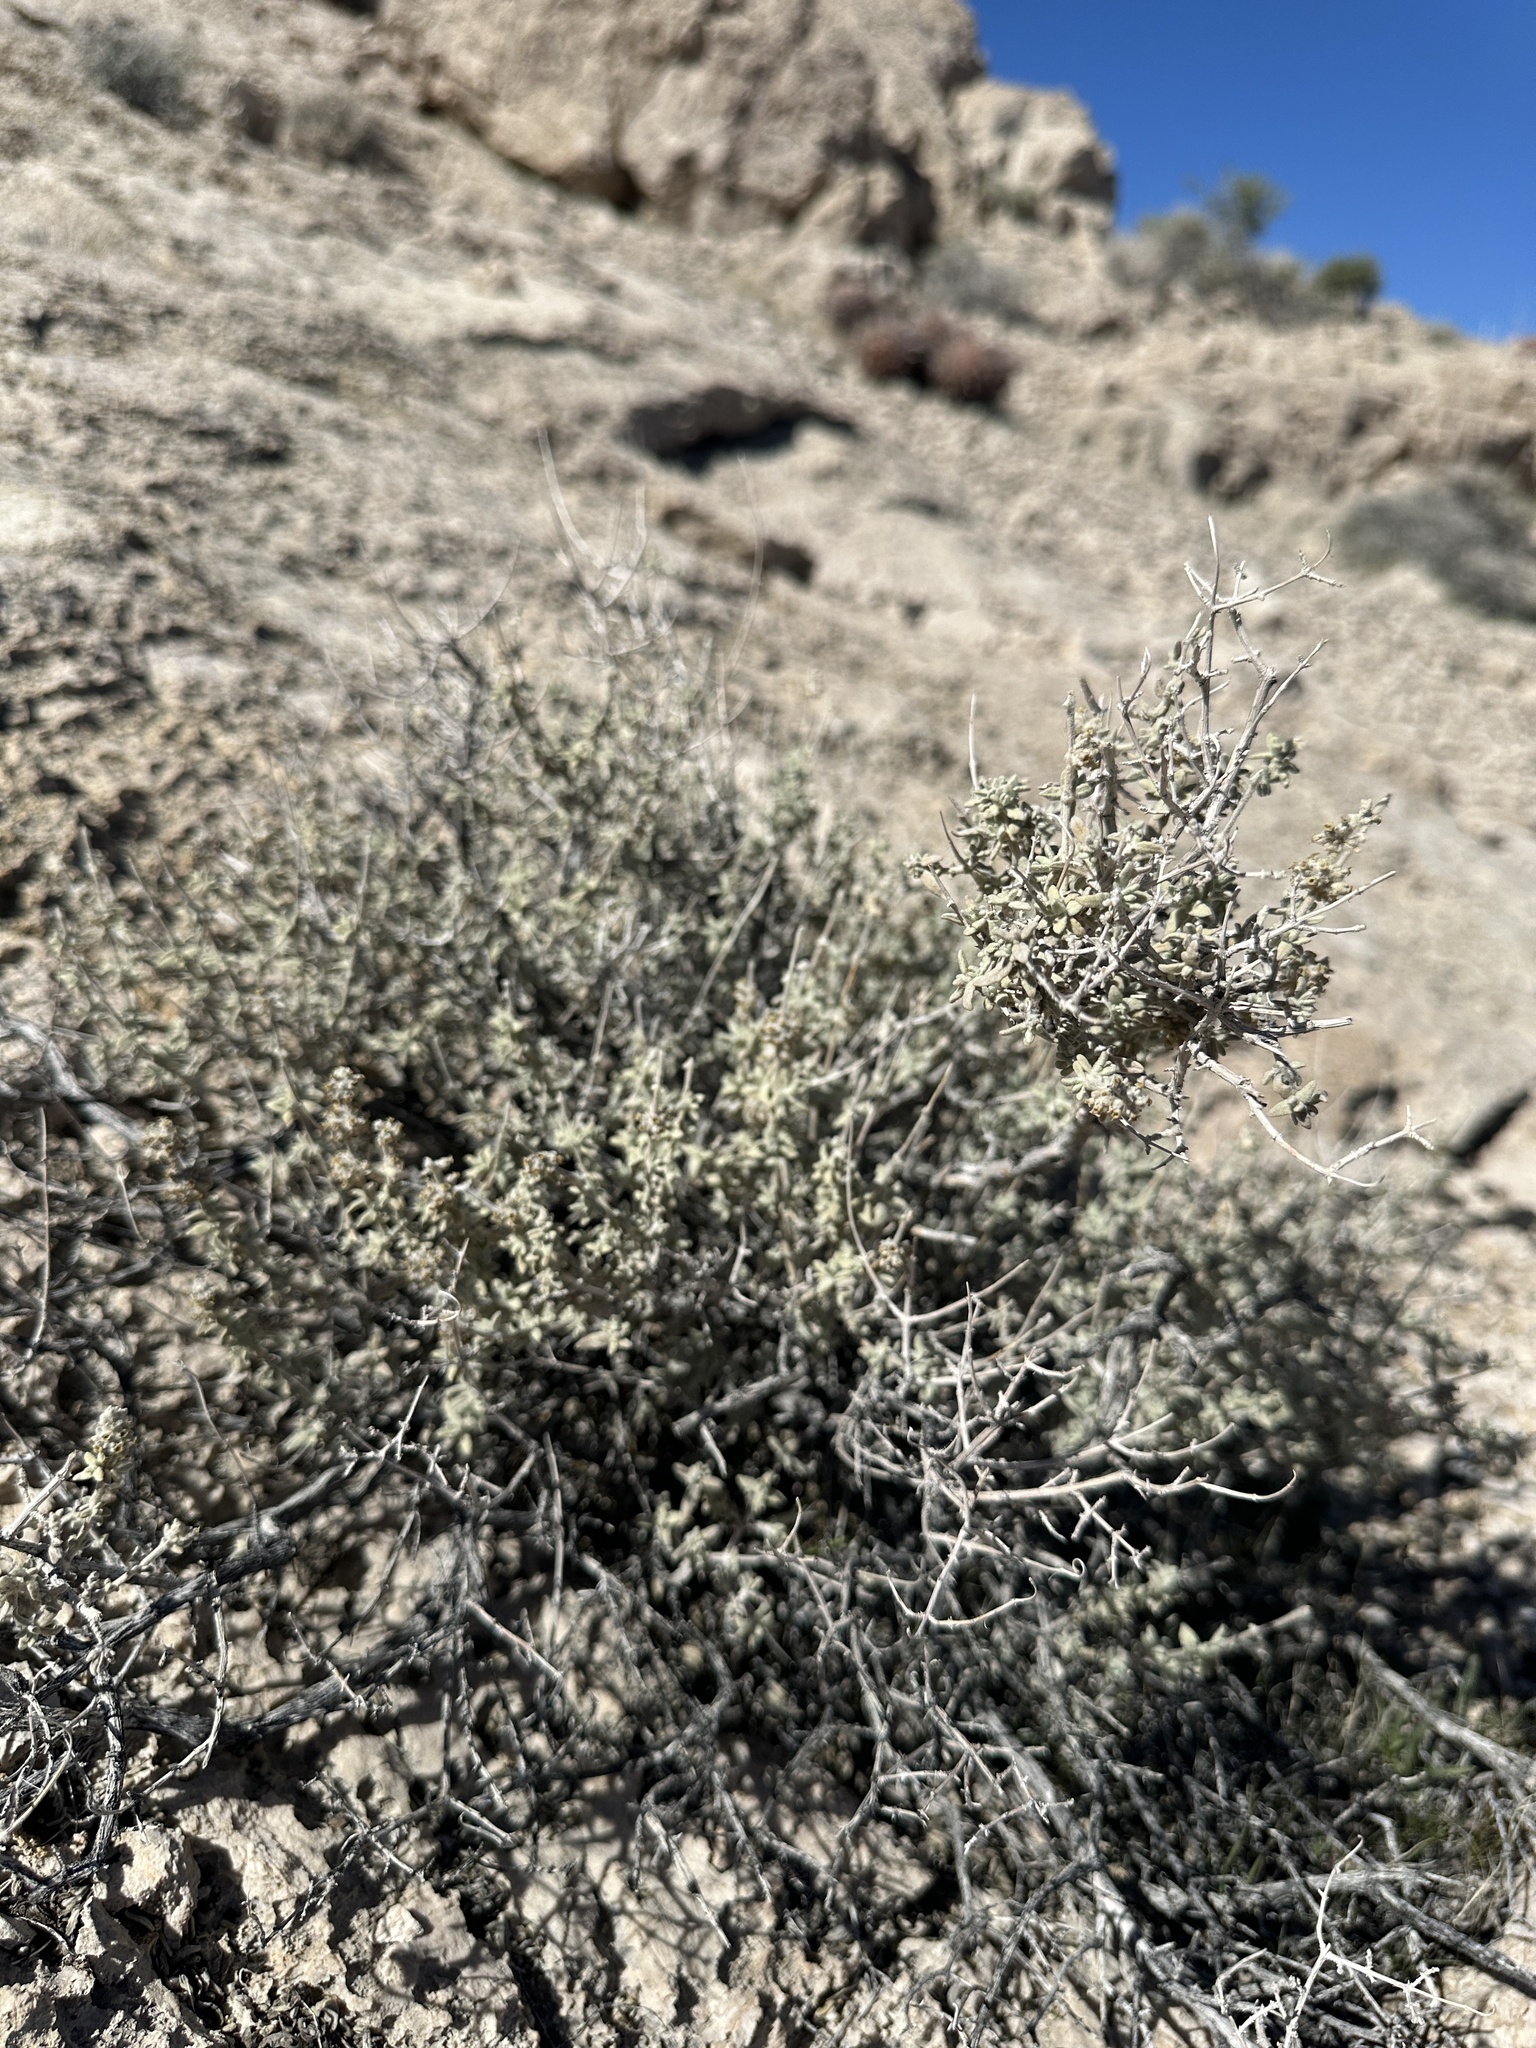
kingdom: Plantae
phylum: Tracheophyta
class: Magnoliopsida
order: Lamiales
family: Scrophulariaceae
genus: Buddleja
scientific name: Buddleja utahensis
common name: Utah butterfly-bush
